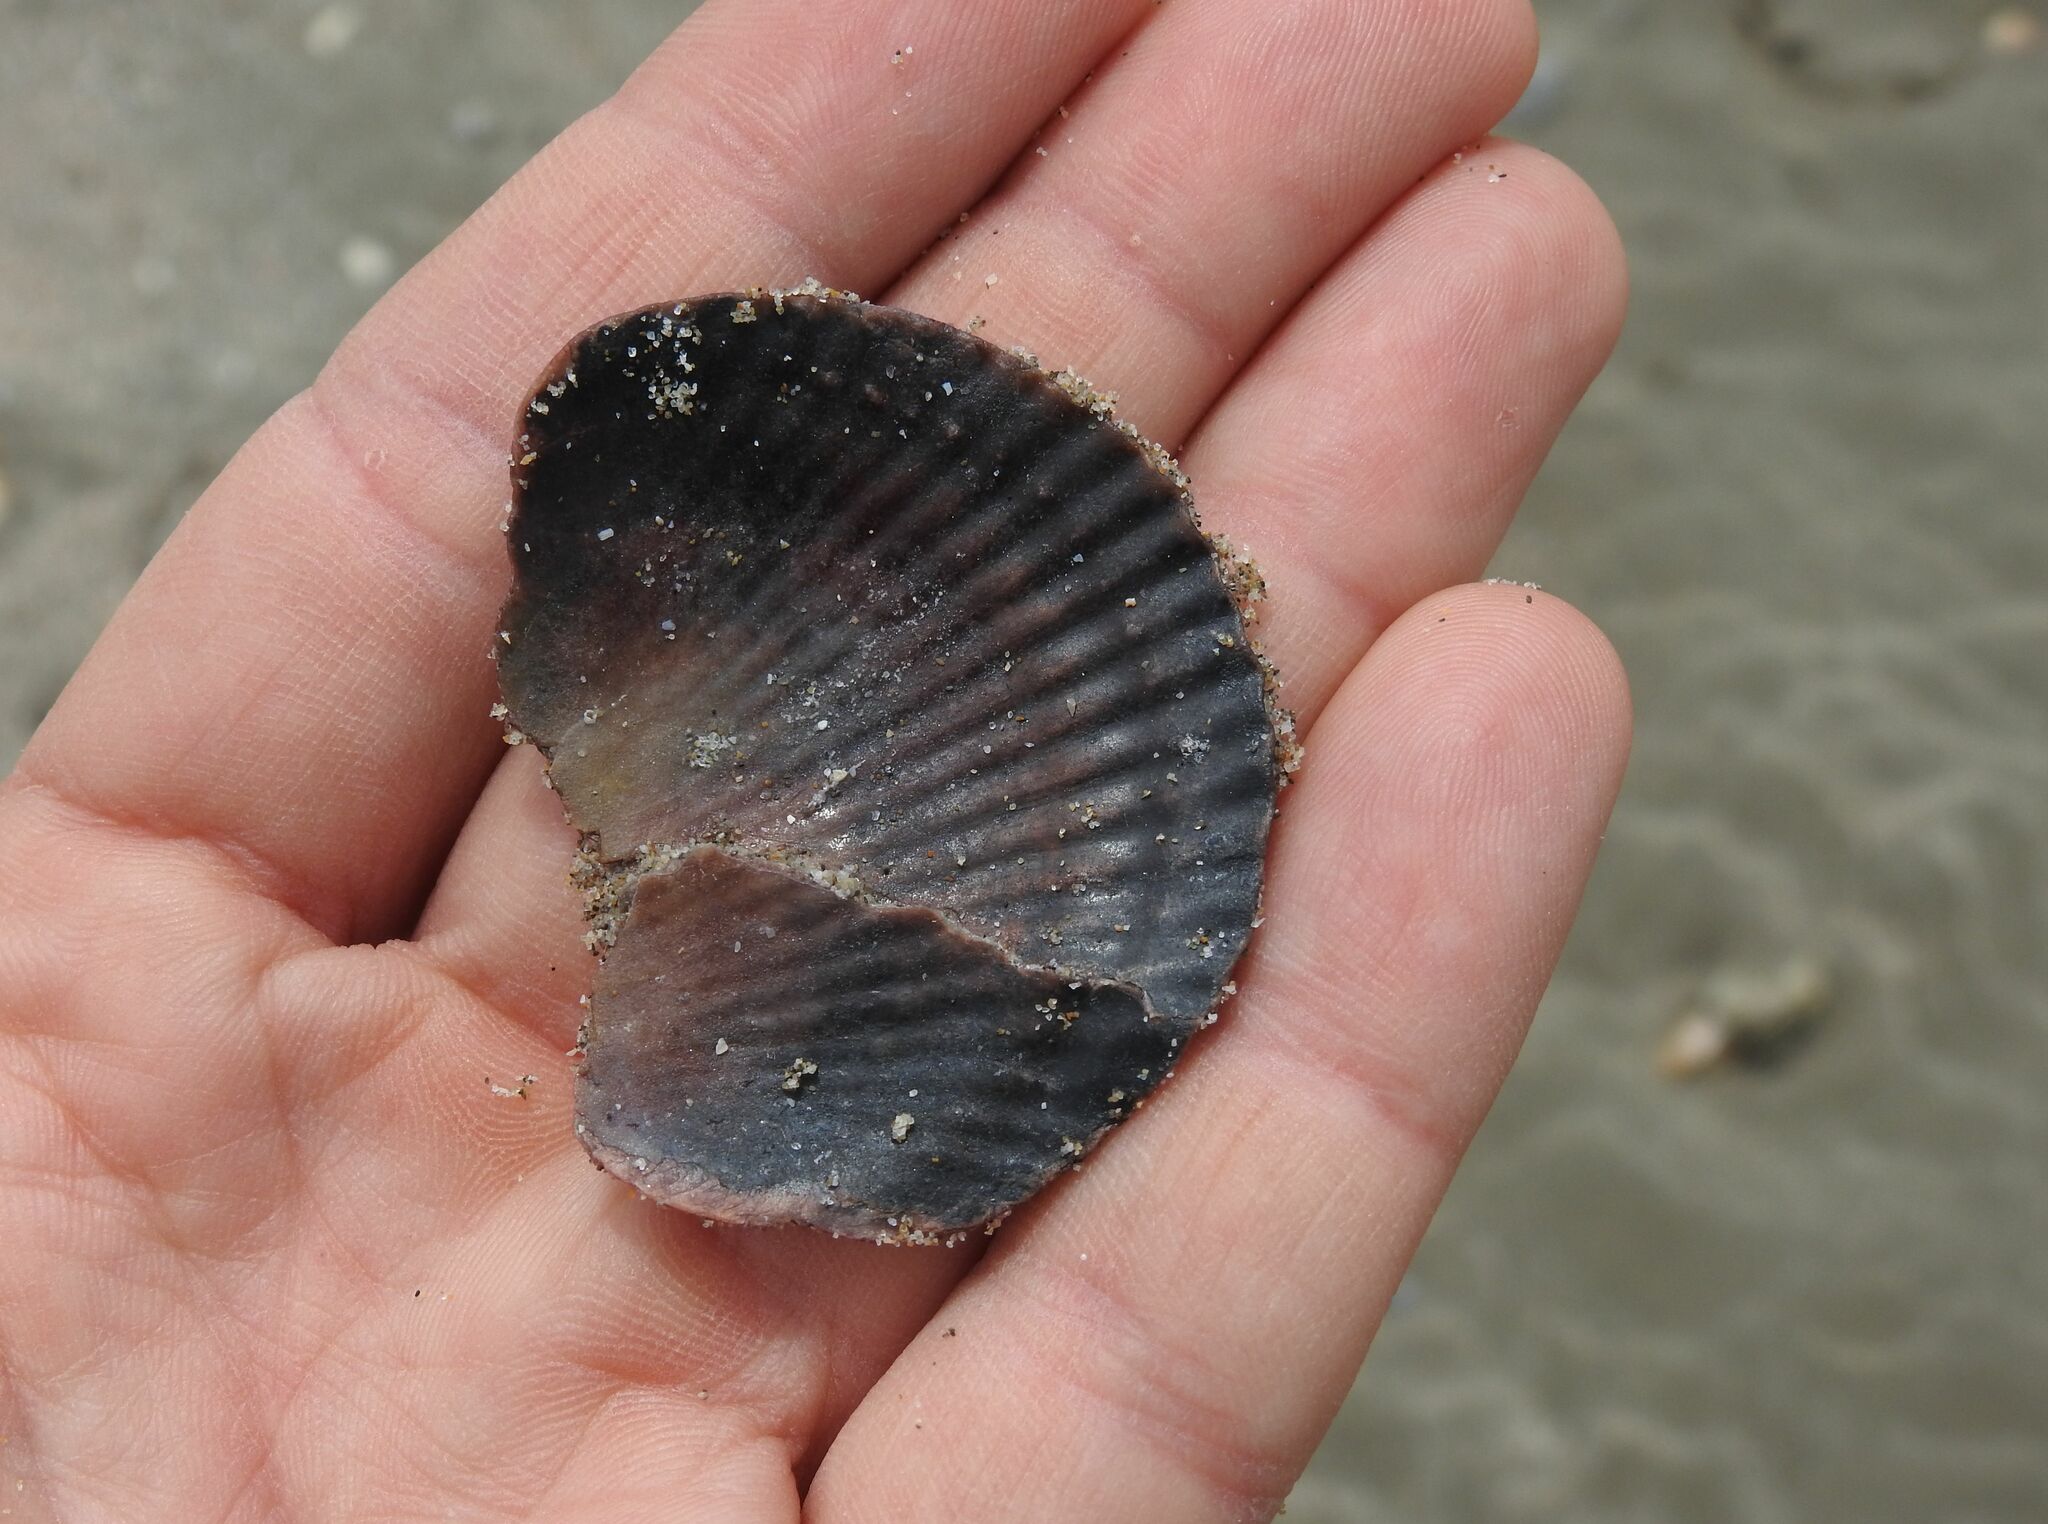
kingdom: Animalia
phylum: Mollusca
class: Bivalvia
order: Pectinida
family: Pectinidae
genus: Mimachlamys
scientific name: Mimachlamys varia
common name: Variegated scallop
